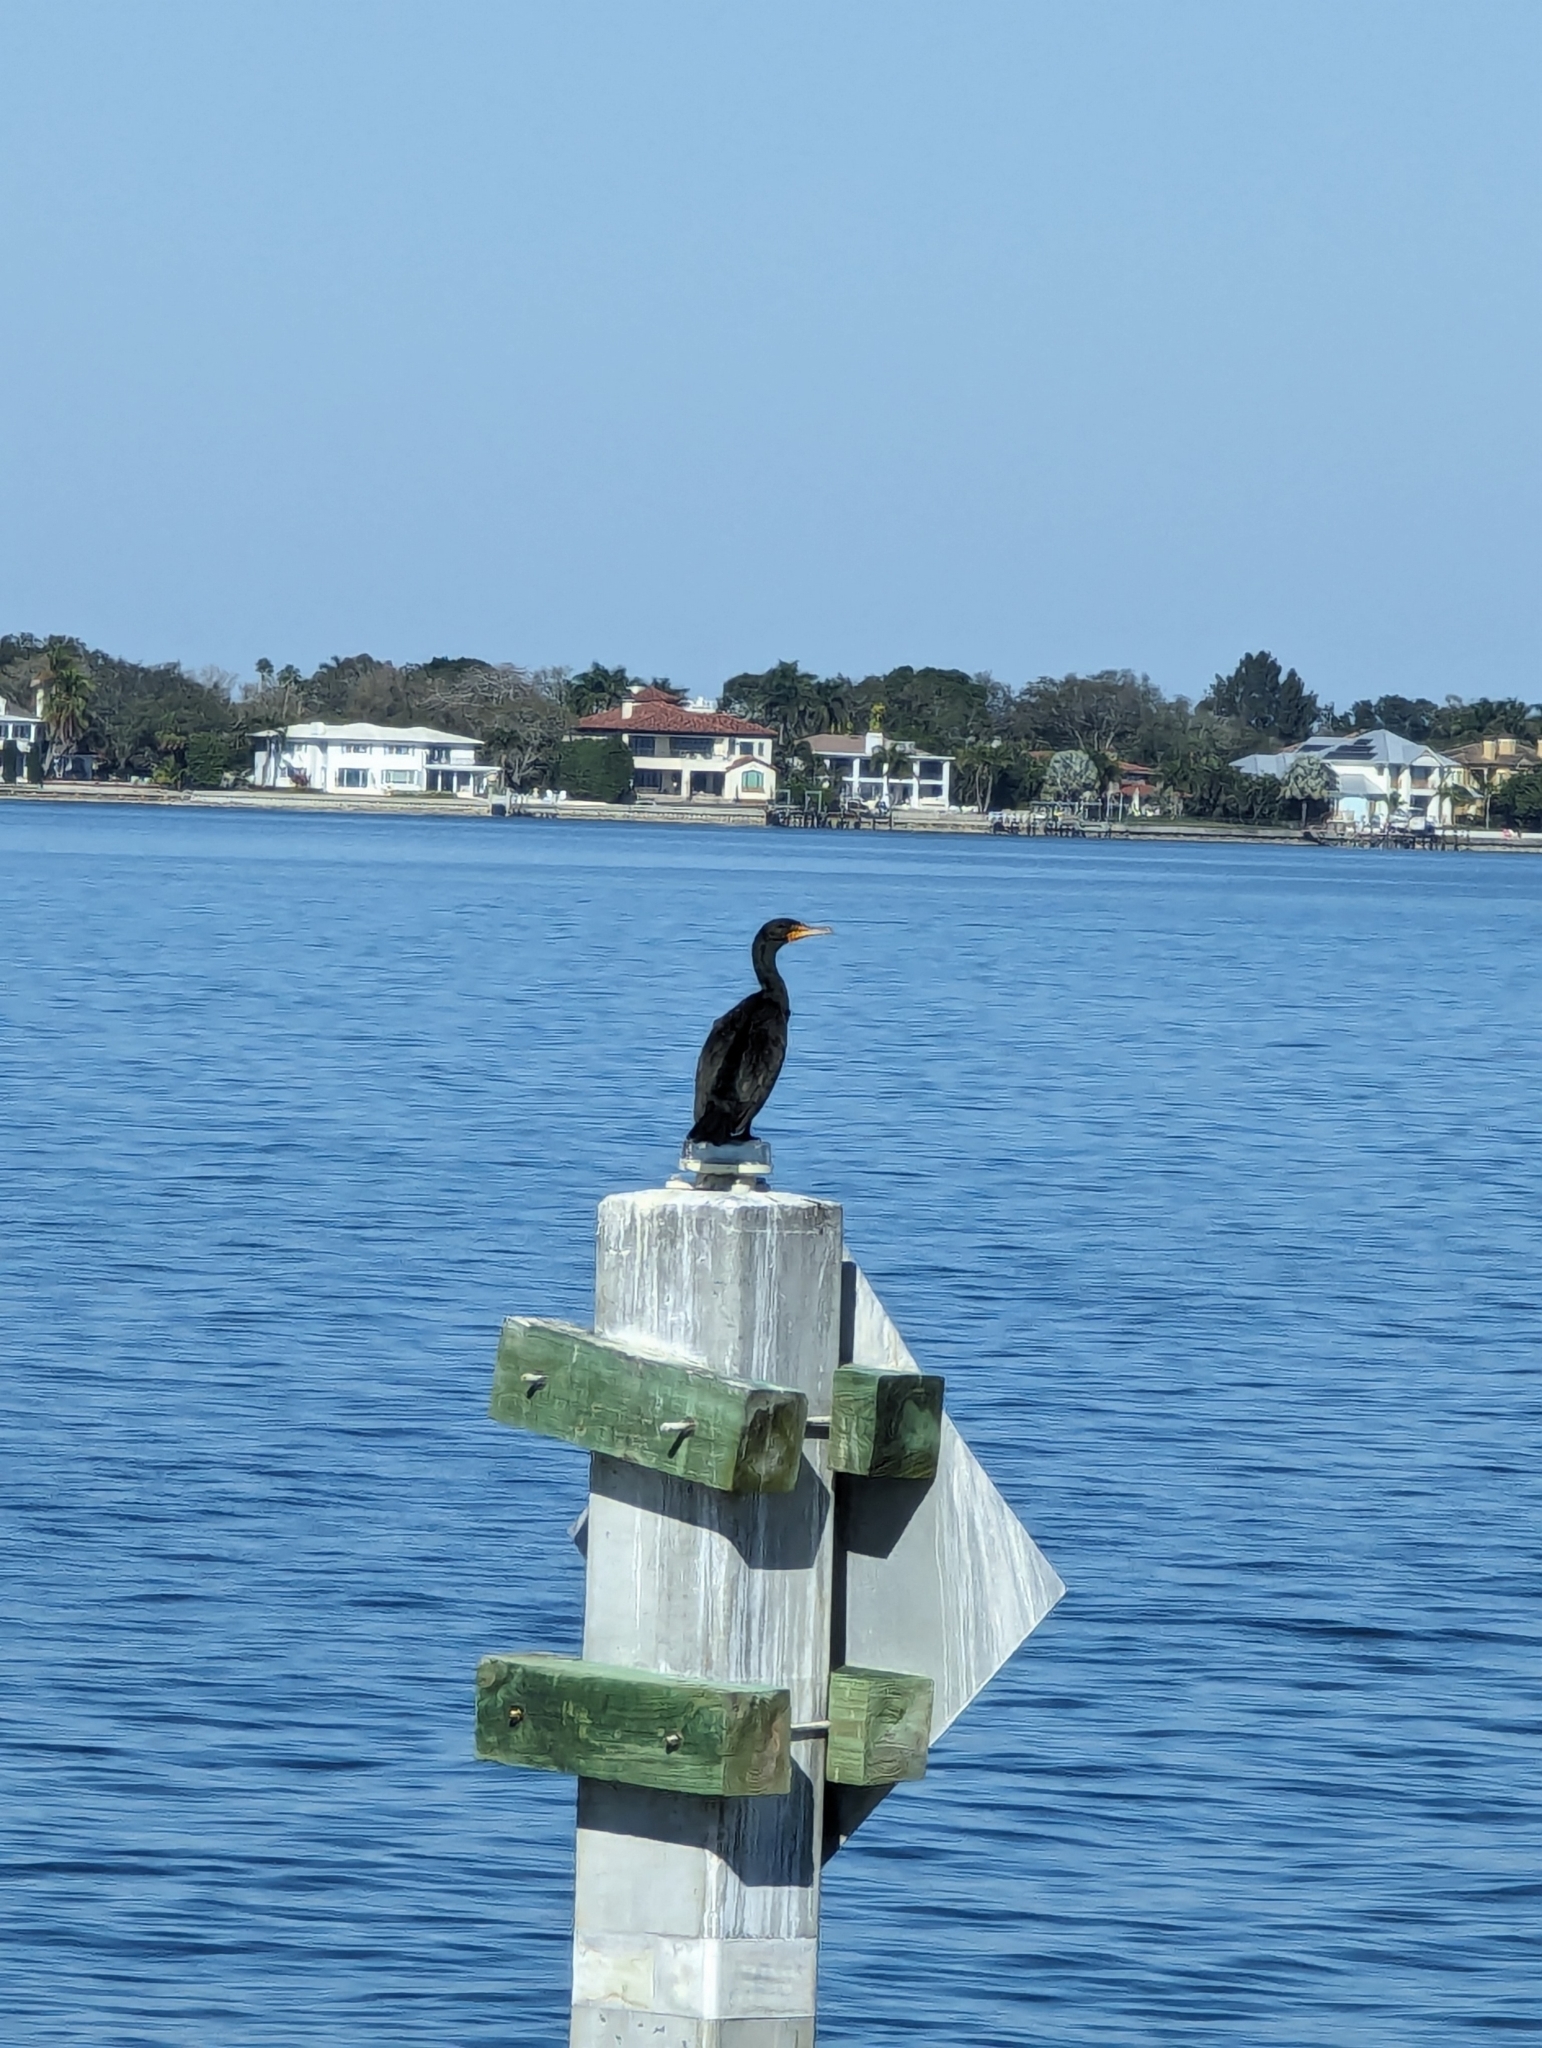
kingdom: Animalia
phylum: Chordata
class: Aves
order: Suliformes
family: Phalacrocoracidae
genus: Phalacrocorax
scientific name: Phalacrocorax auritus
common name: Double-crested cormorant
